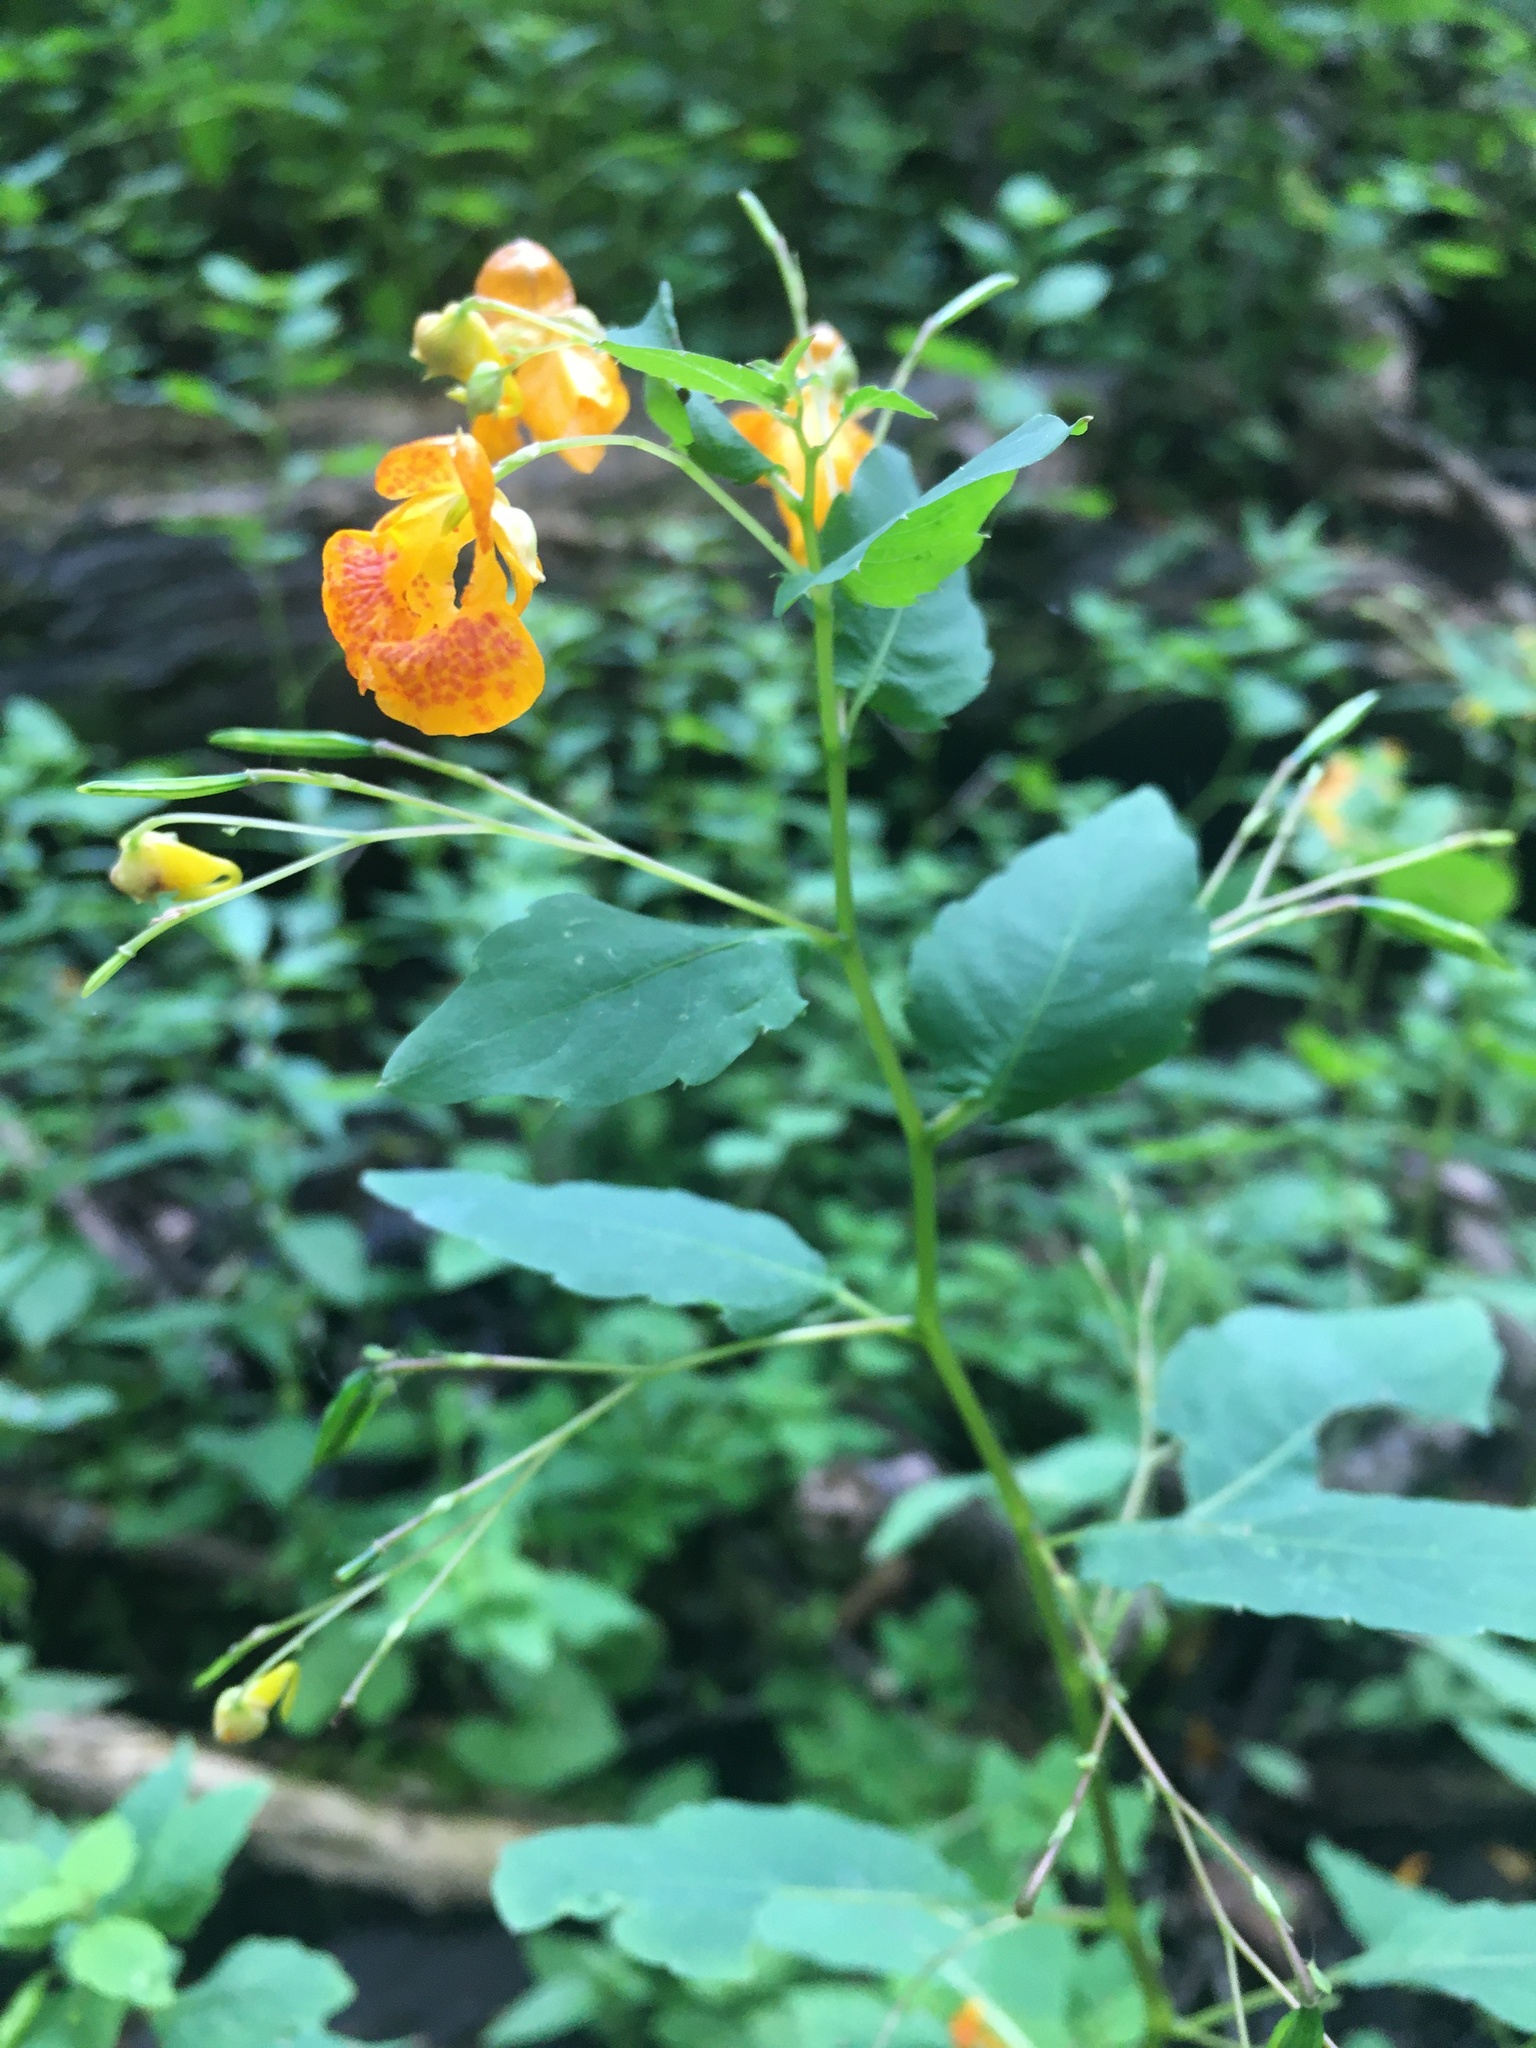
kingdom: Plantae
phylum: Tracheophyta
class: Magnoliopsida
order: Ericales
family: Balsaminaceae
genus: Impatiens
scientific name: Impatiens capensis
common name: Orange balsam
